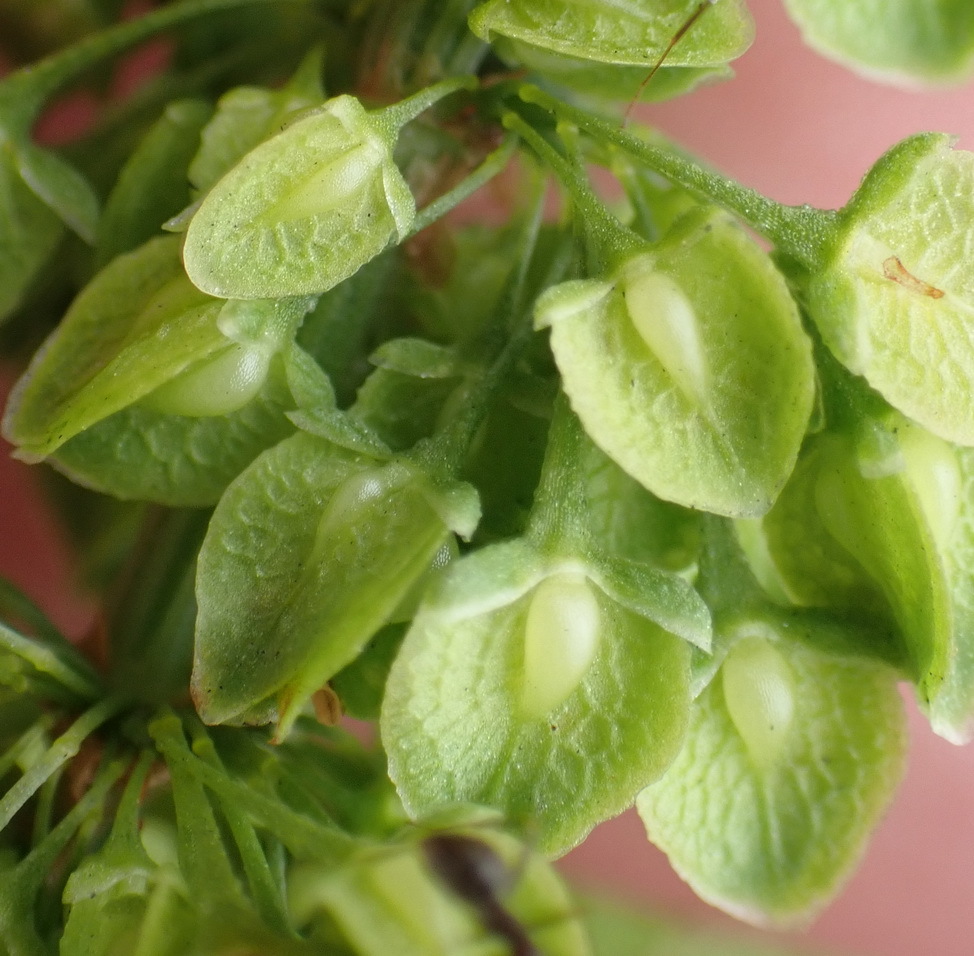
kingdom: Plantae
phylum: Tracheophyta
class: Magnoliopsida
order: Caryophyllales
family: Polygonaceae
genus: Rumex
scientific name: Rumex salicifolius
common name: Willow-leaved dock
